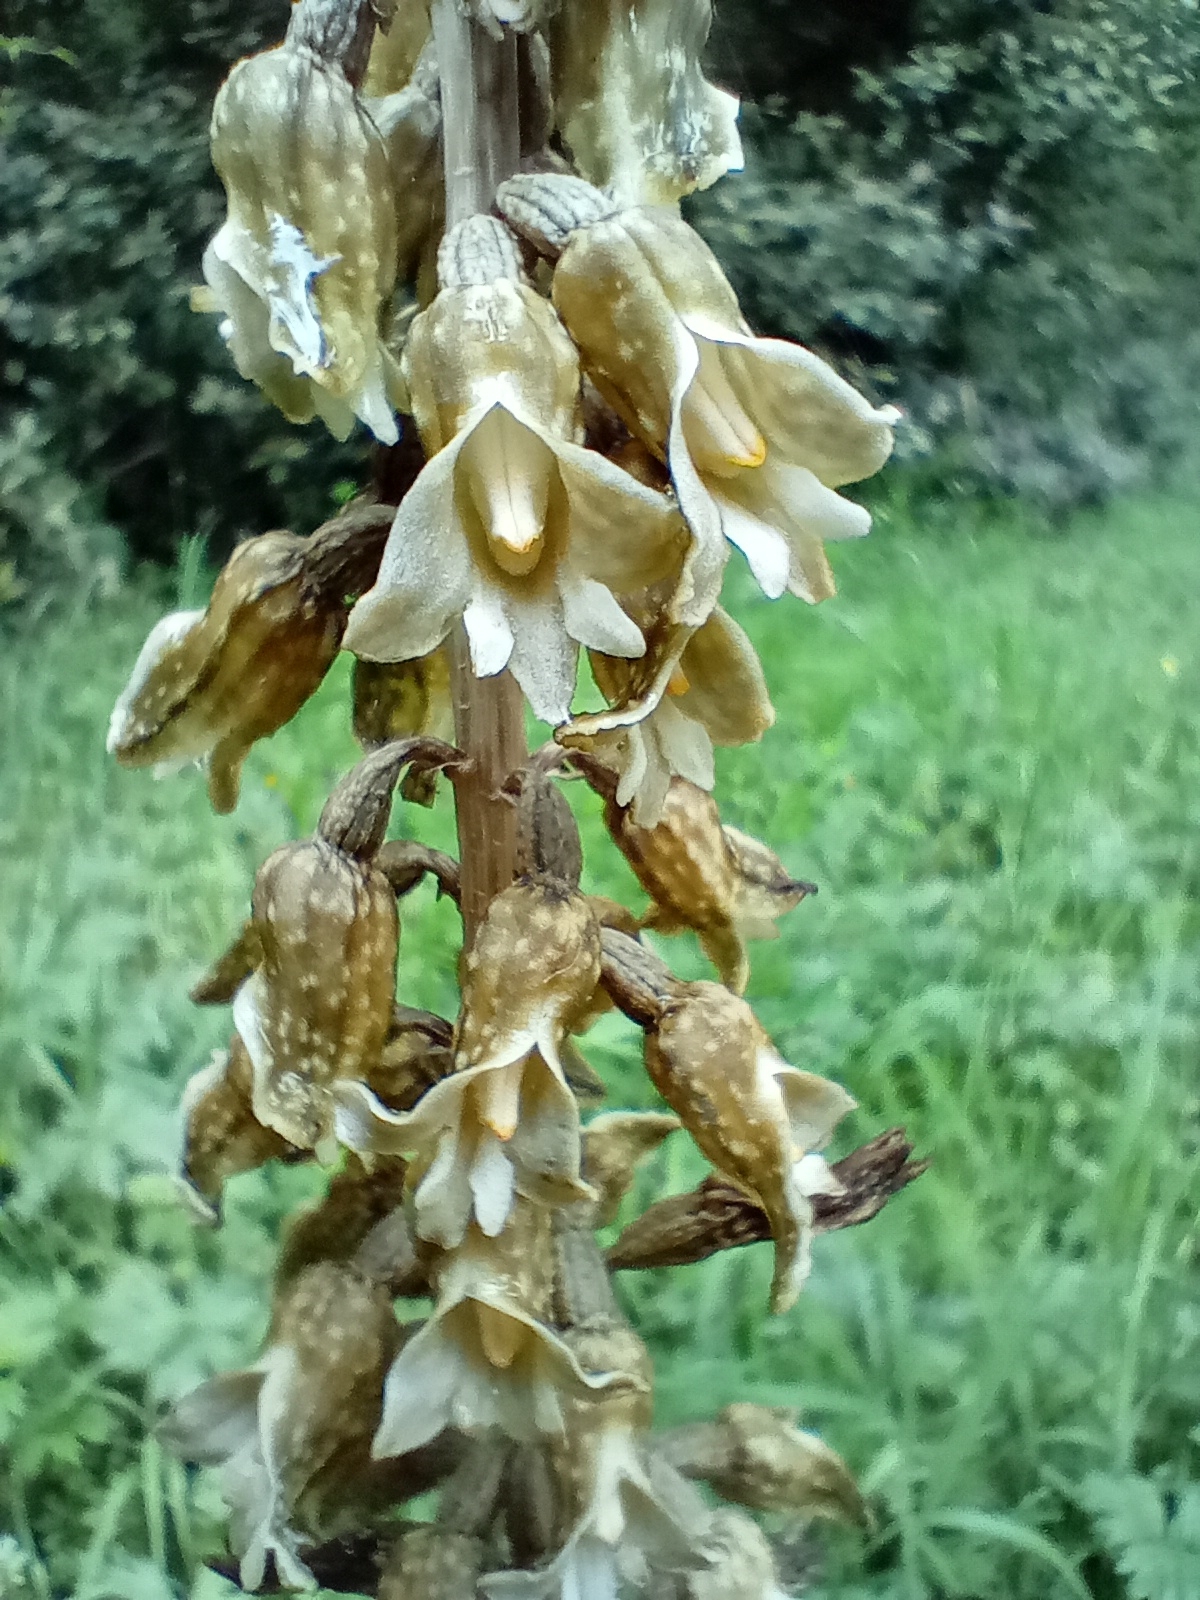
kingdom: Plantae
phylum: Tracheophyta
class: Liliopsida
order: Asparagales
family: Orchidaceae
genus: Gastrodia
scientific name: Gastrodia molloyi
